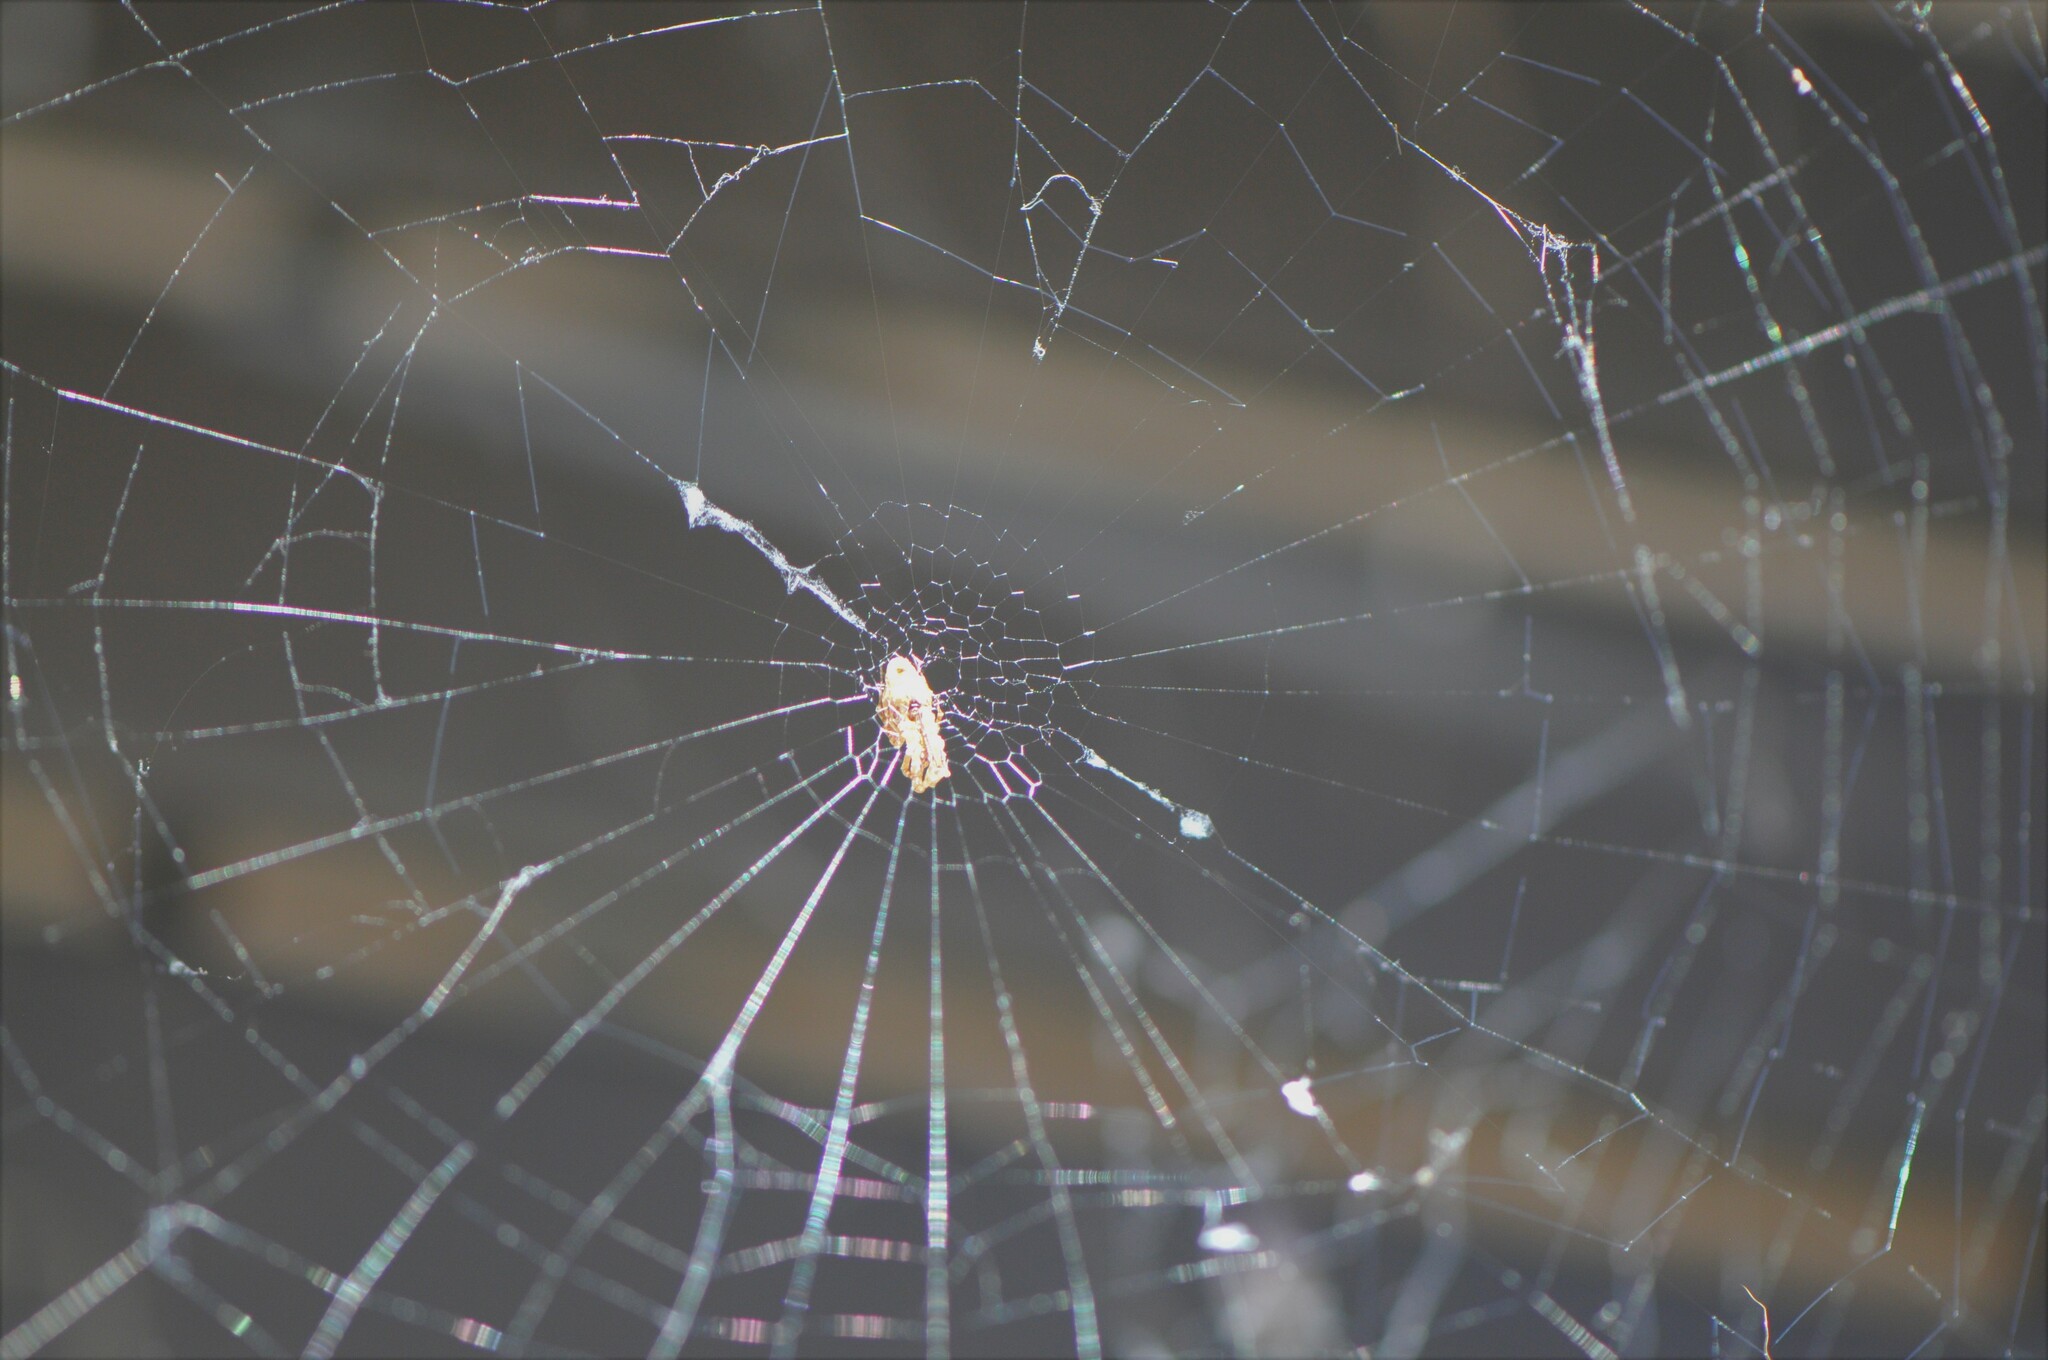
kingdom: Animalia
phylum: Arthropoda
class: Arachnida
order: Araneae
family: Uloboridae
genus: Philoponella
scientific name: Philoponella oweni
